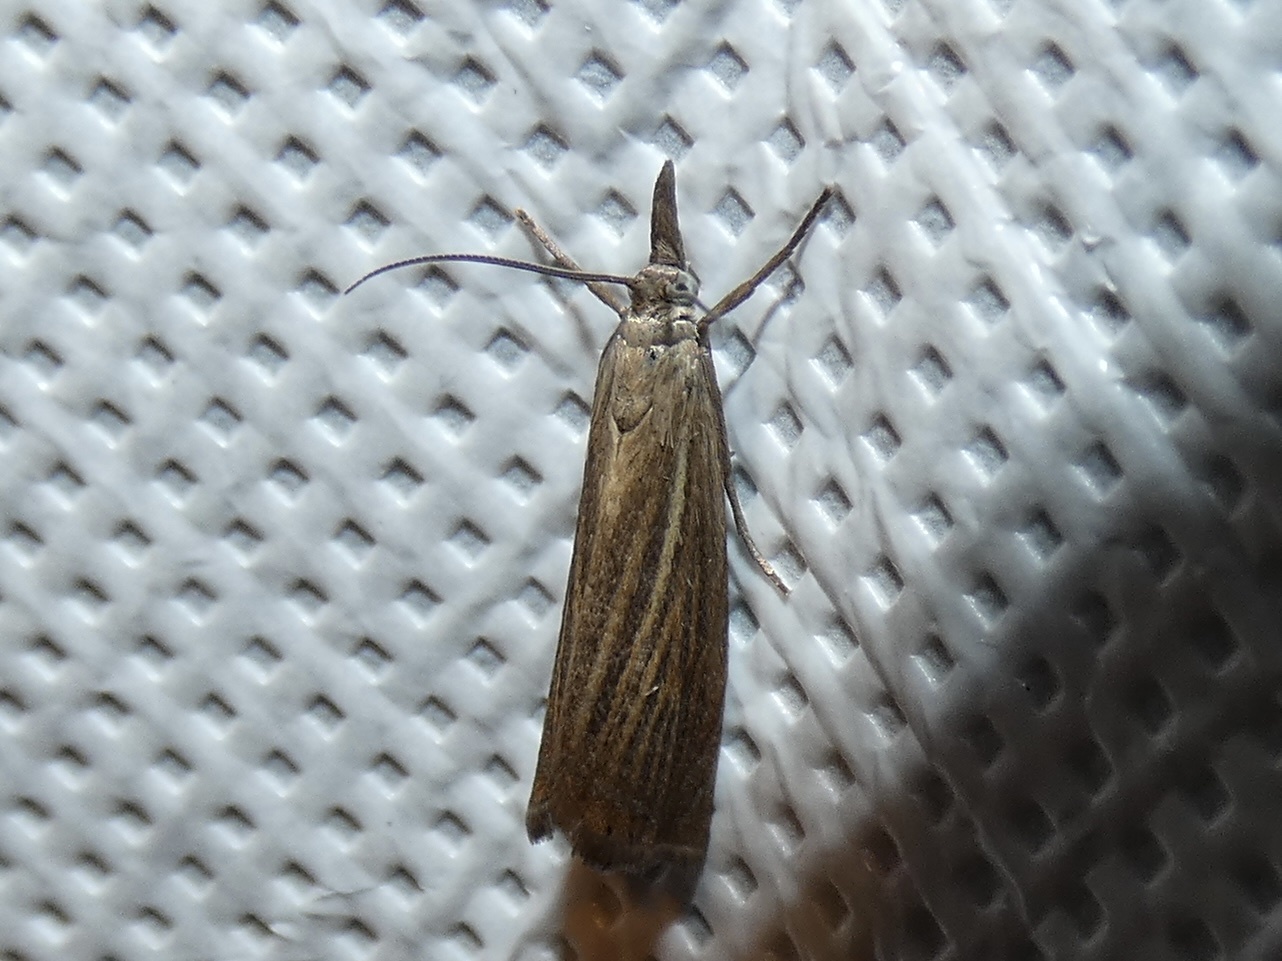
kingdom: Animalia
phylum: Arthropoda
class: Insecta
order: Lepidoptera
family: Crambidae
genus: Chrysoteuchia
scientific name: Chrysoteuchia culmella
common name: Garden grass-veneer
